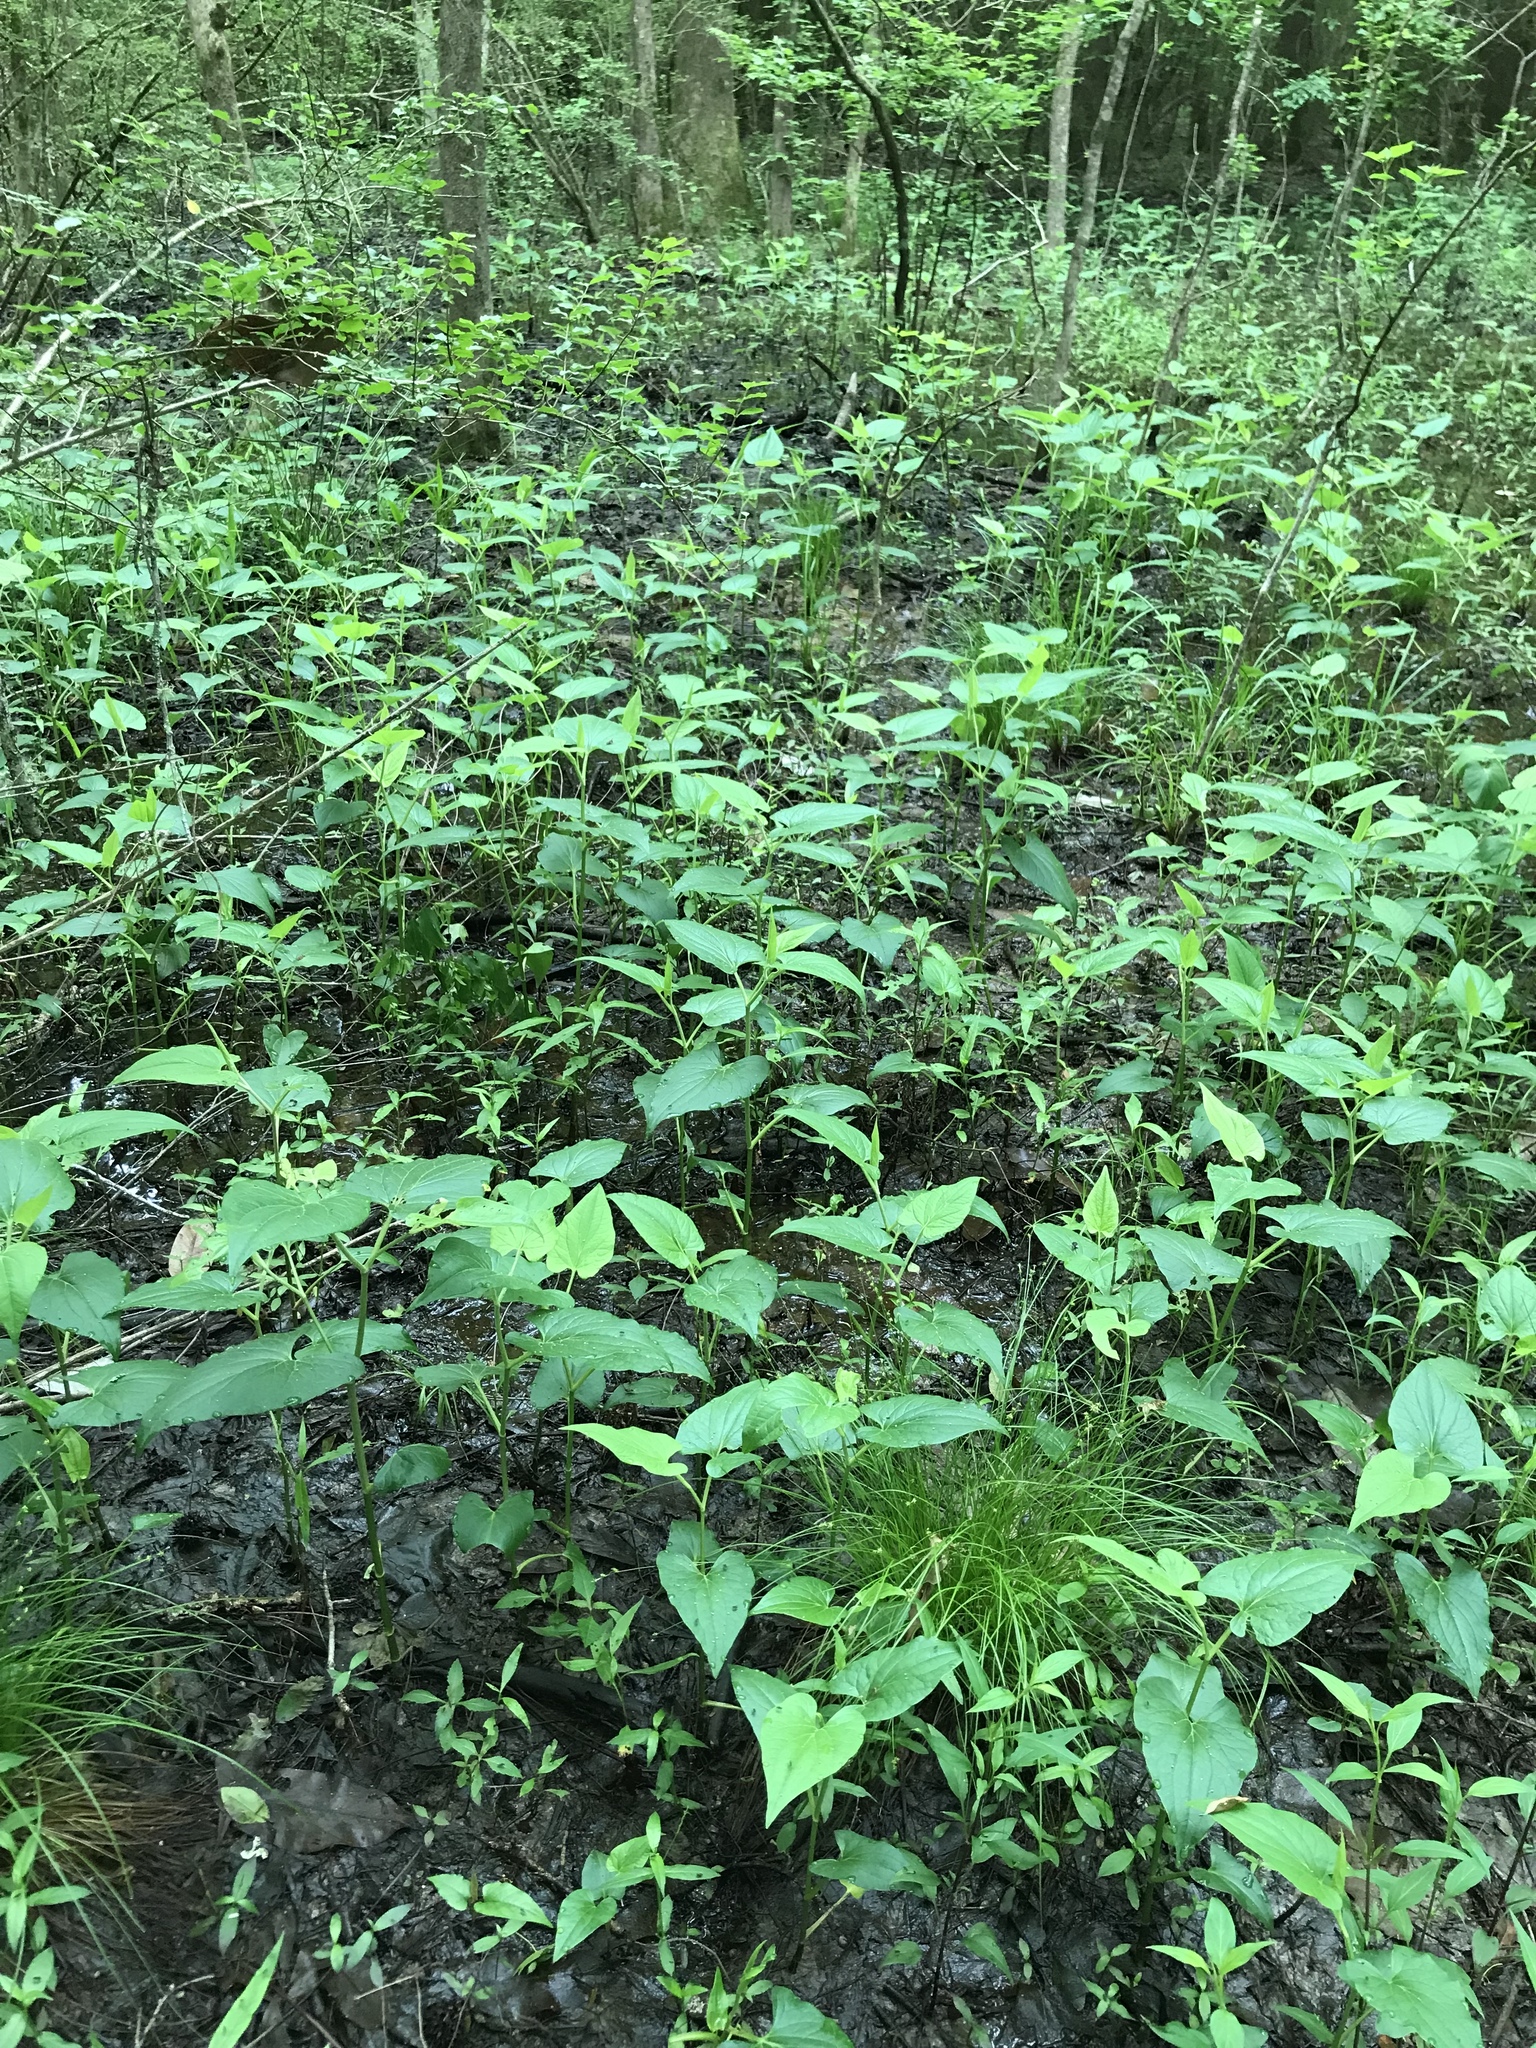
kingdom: Plantae
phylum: Tracheophyta
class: Magnoliopsida
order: Piperales
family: Saururaceae
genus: Saururus
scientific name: Saururus cernuus
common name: Lizard's-tail
